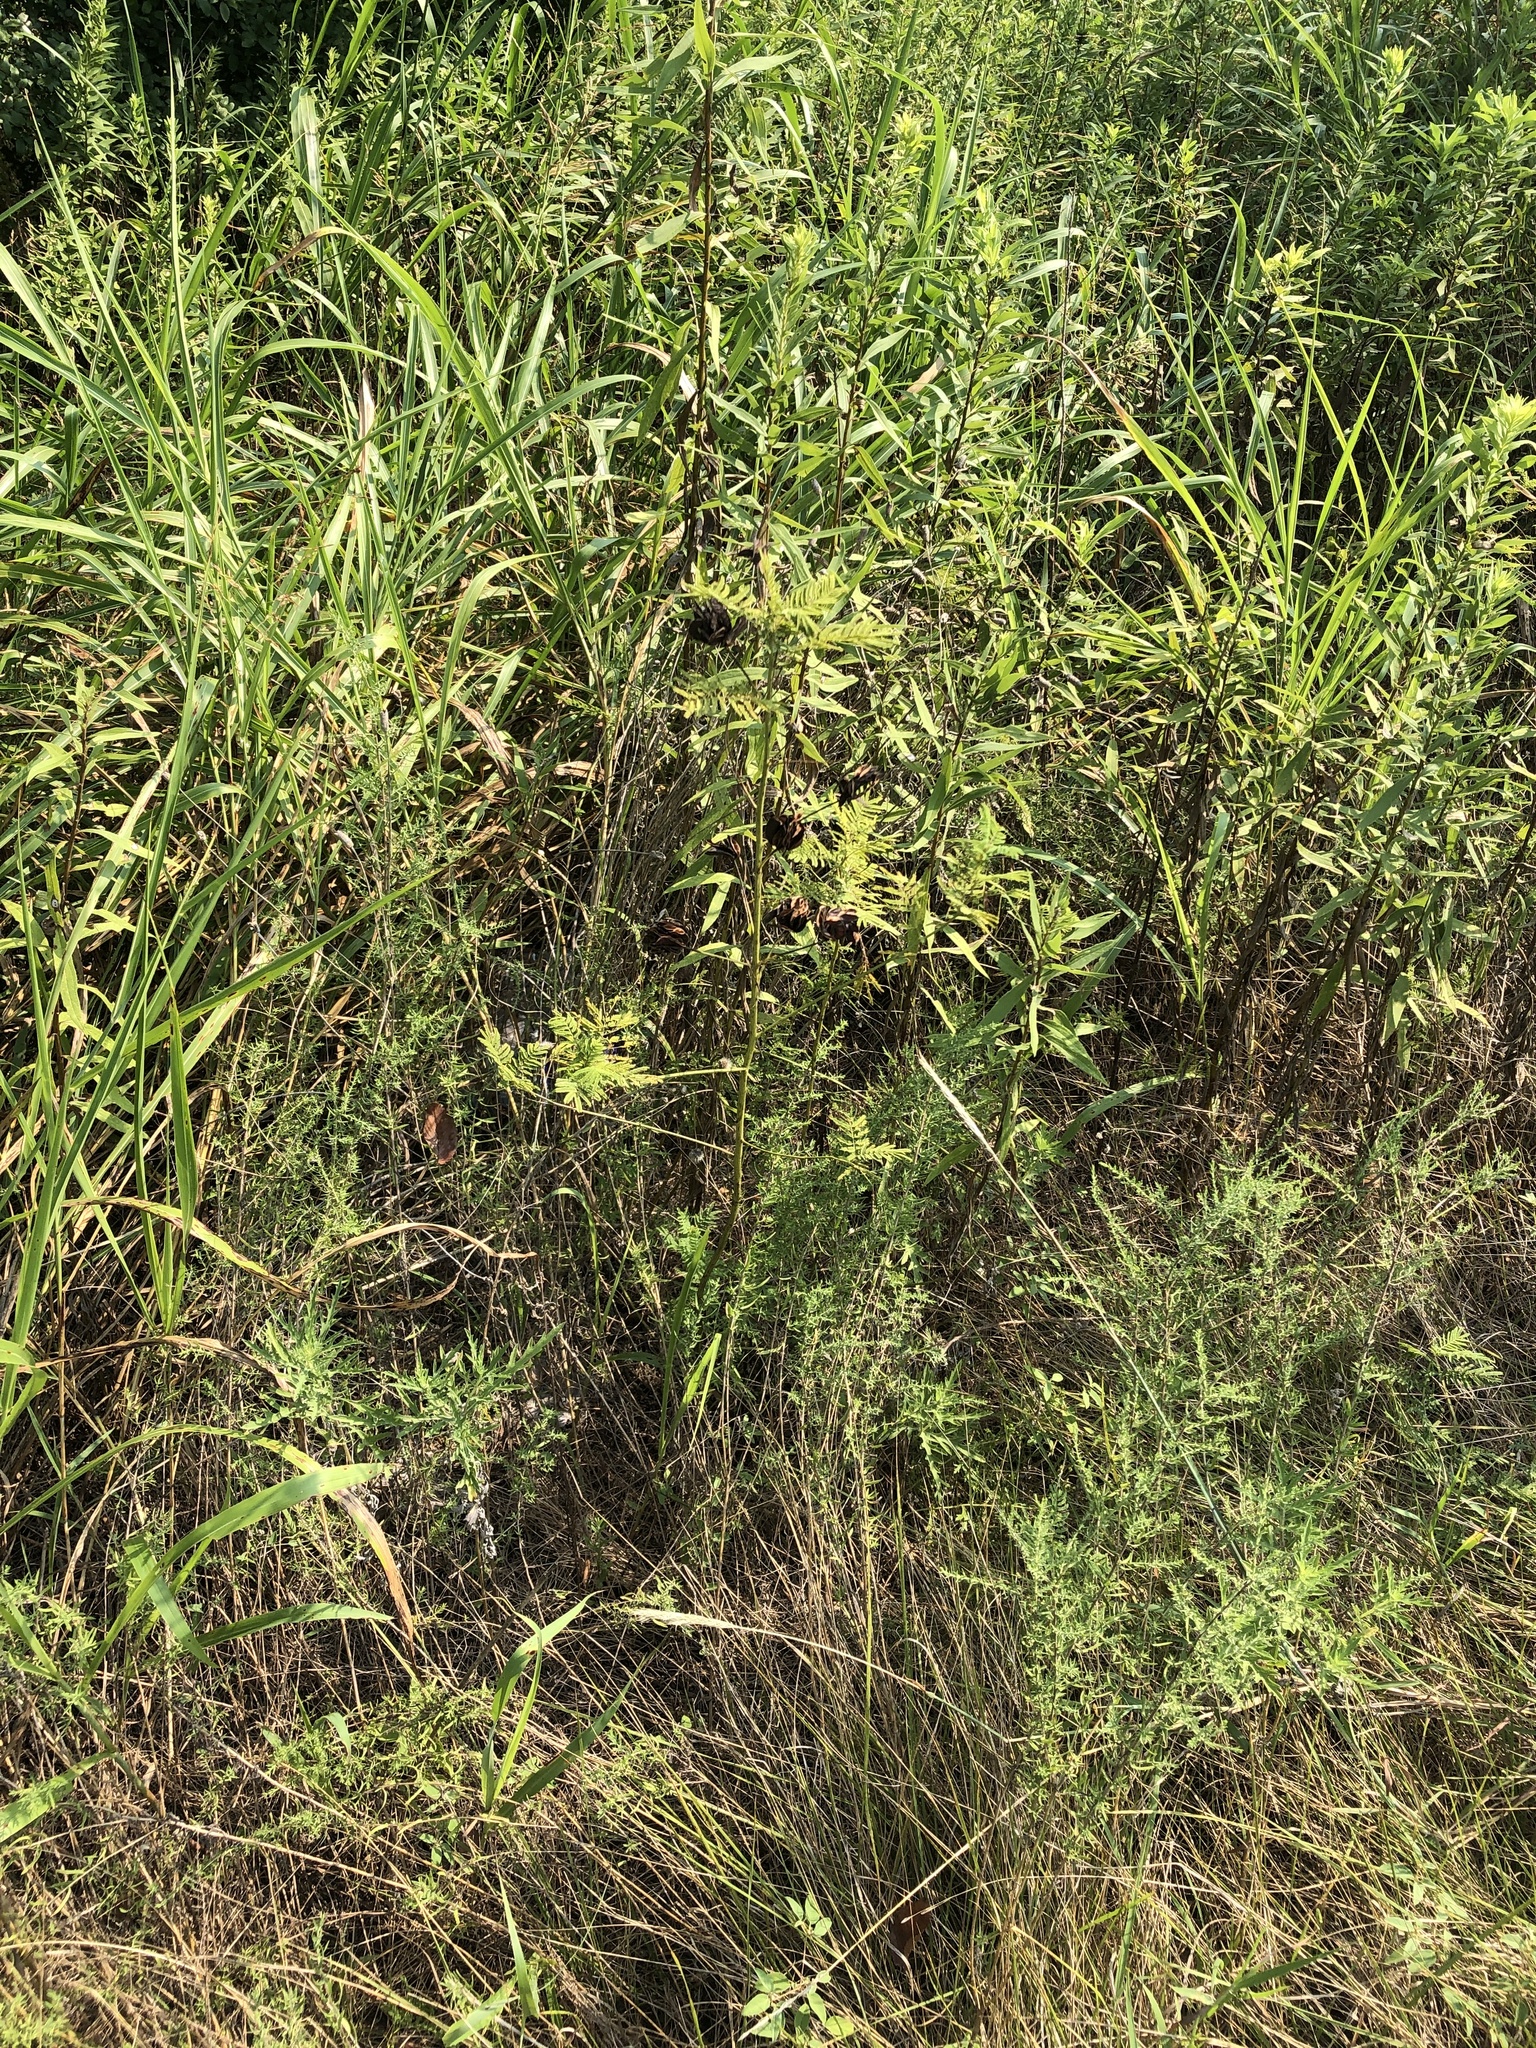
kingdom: Plantae
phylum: Tracheophyta
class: Magnoliopsida
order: Fabales
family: Fabaceae
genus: Desmanthus
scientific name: Desmanthus illinoensis
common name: Illinois bundle-flower
